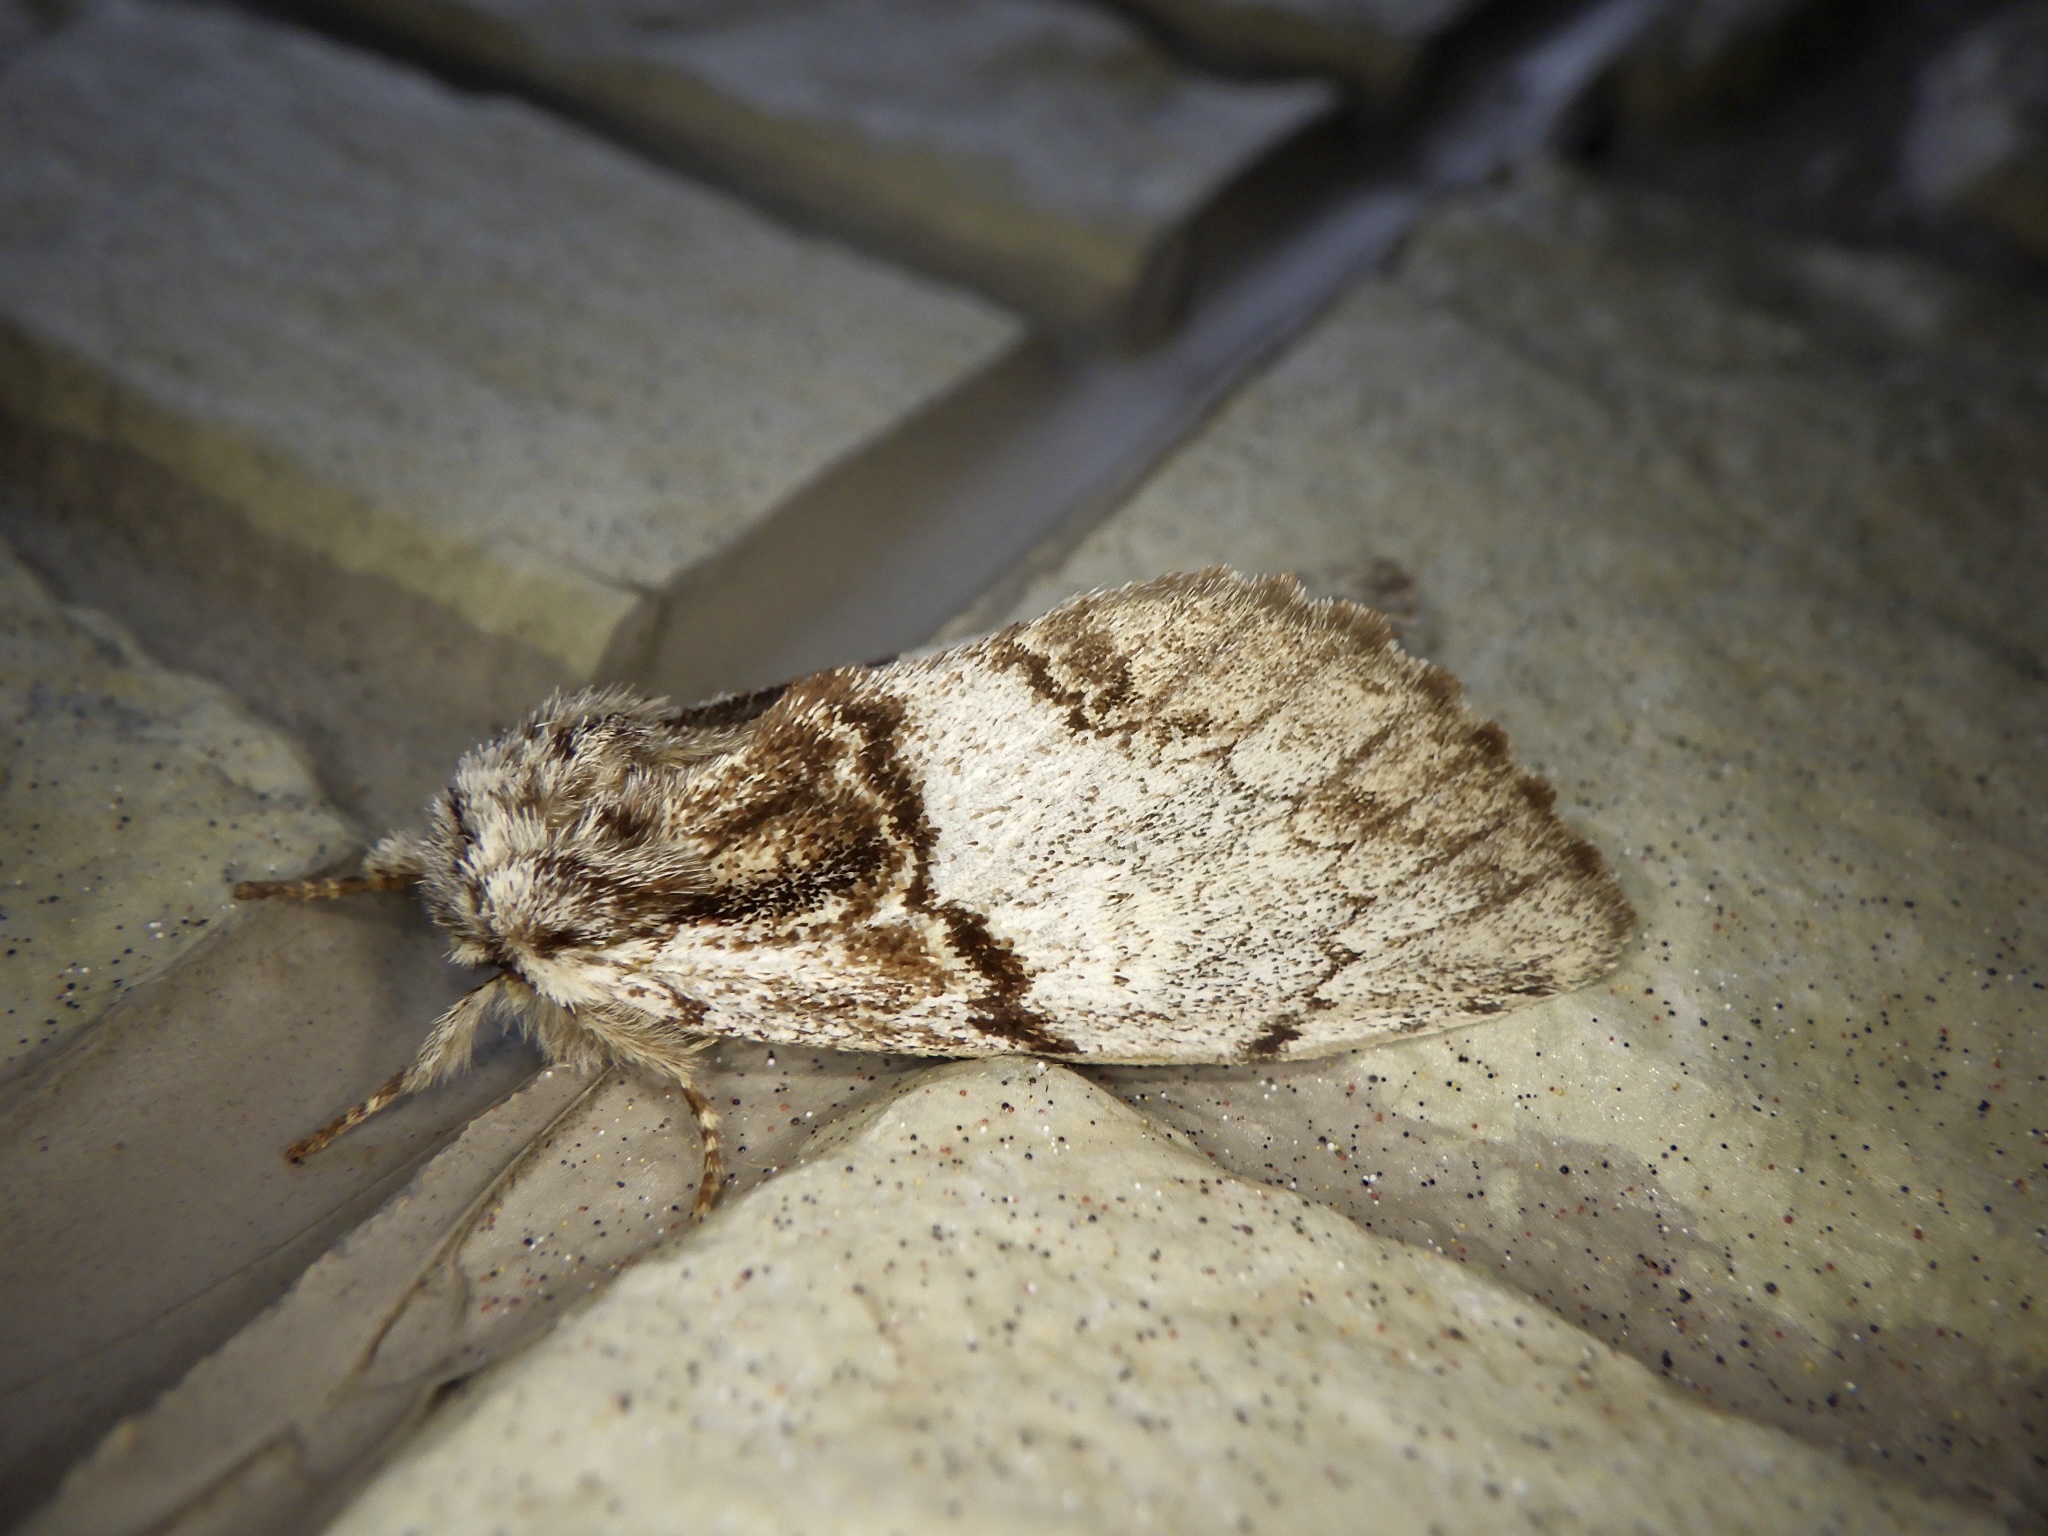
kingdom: Animalia
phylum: Arthropoda
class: Insecta
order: Lepidoptera
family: Notodontidae
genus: Phalerodonta
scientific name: Phalerodonta manleyi
